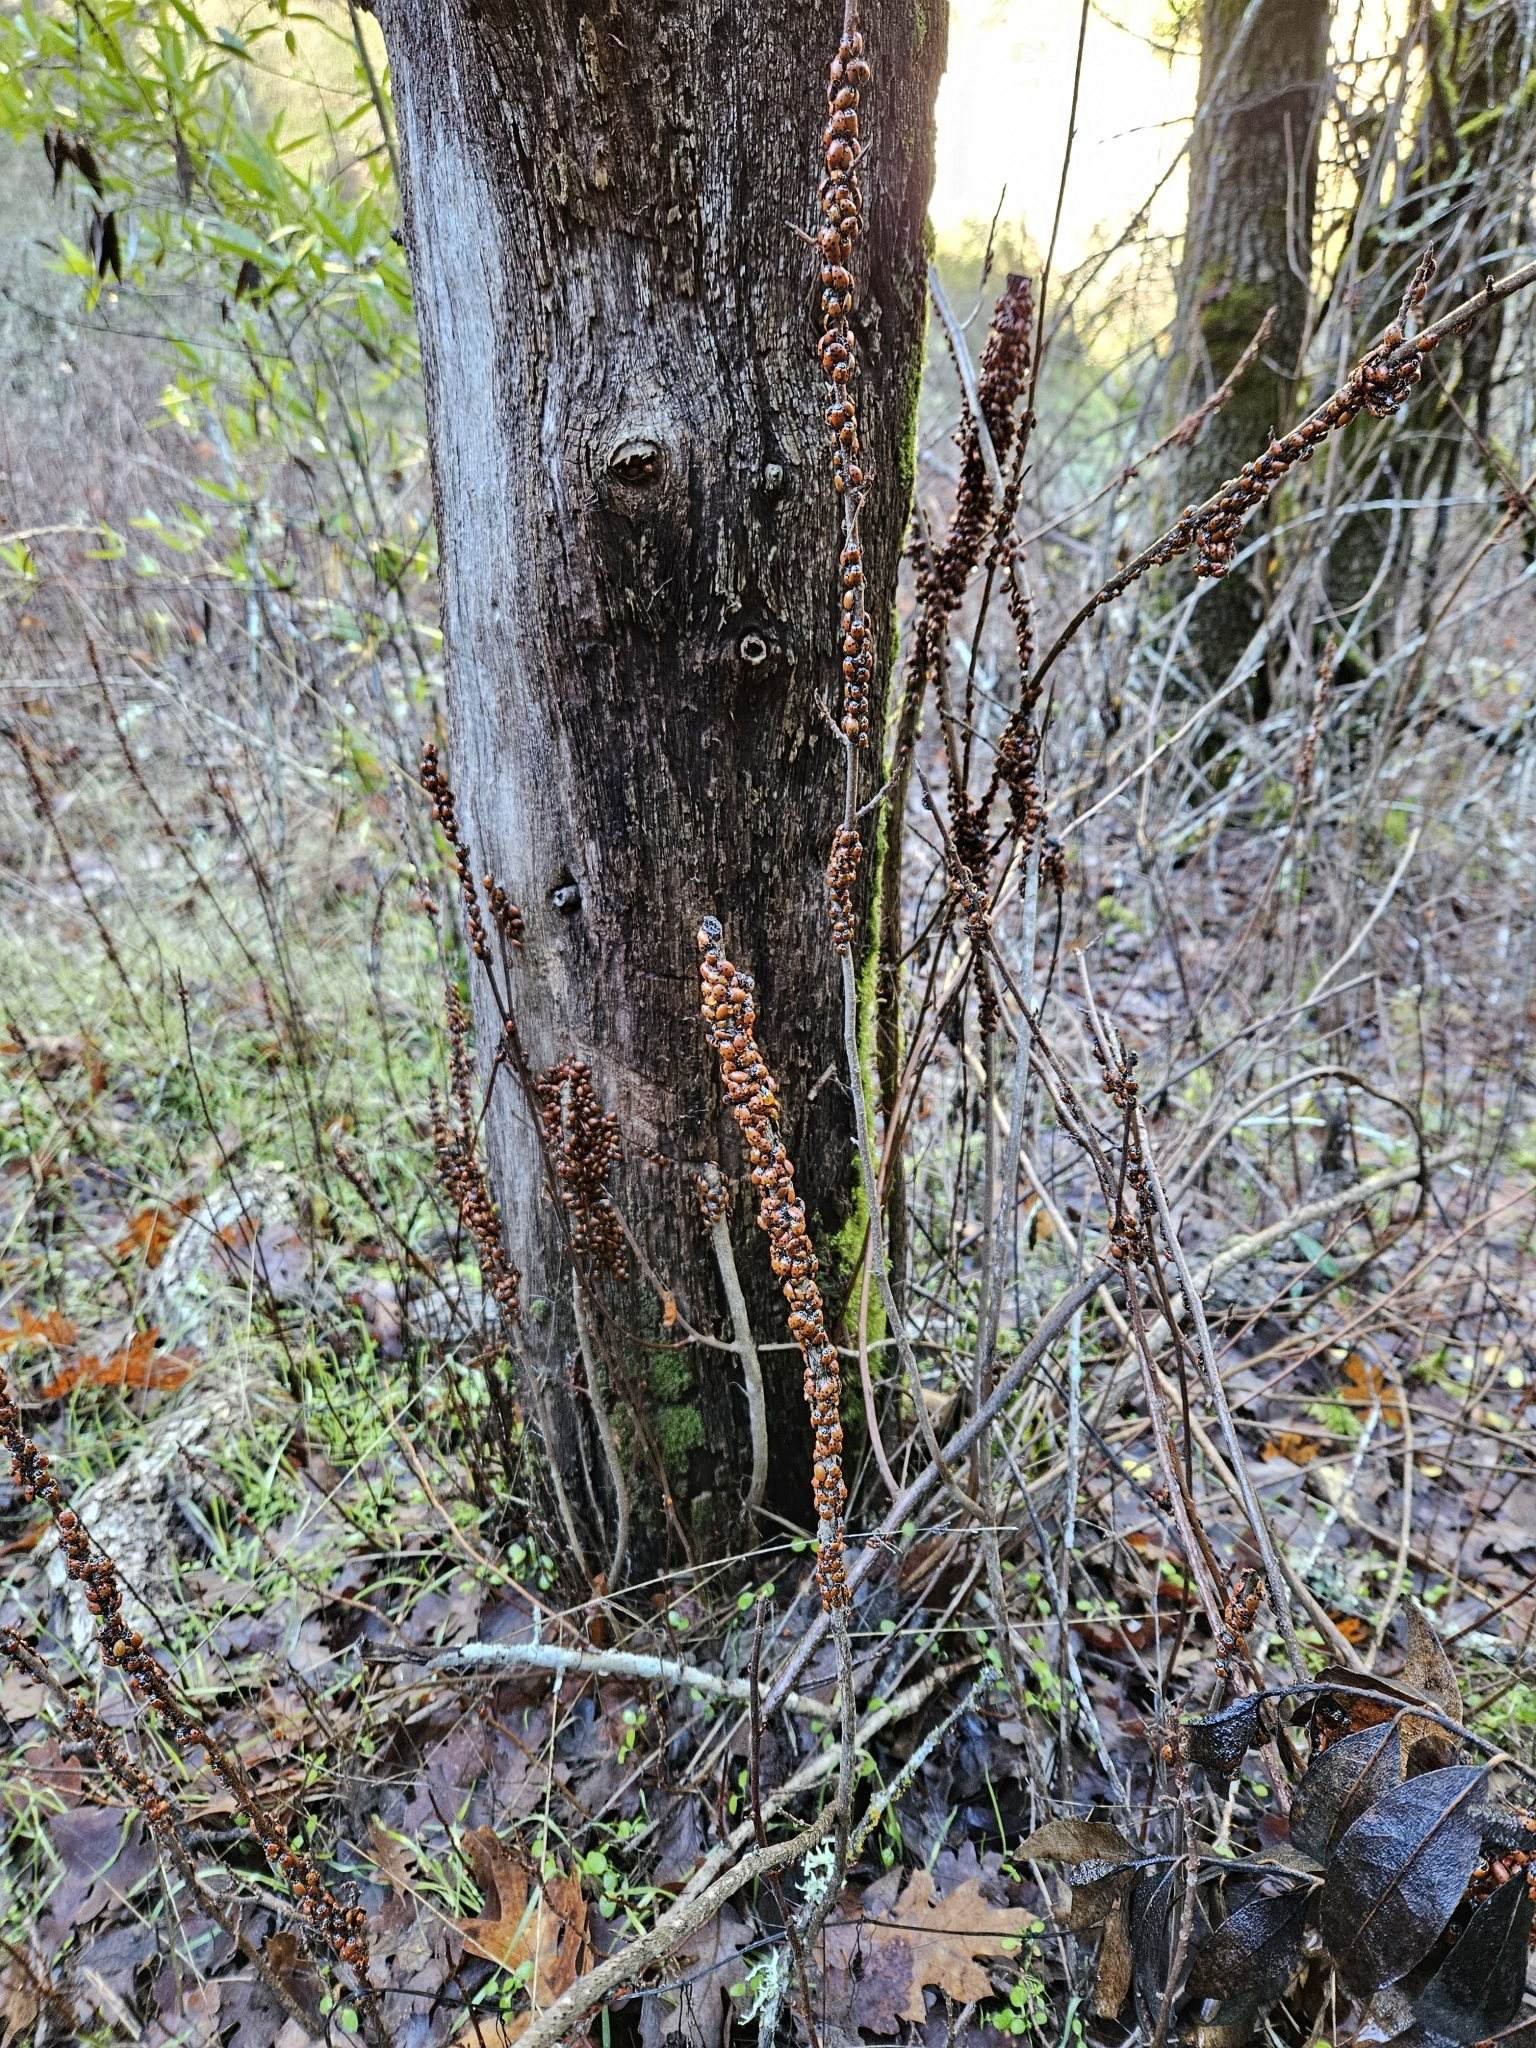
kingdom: Animalia
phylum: Arthropoda
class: Insecta
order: Coleoptera
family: Coccinellidae
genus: Hippodamia
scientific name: Hippodamia convergens
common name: Convergent lady beetle
